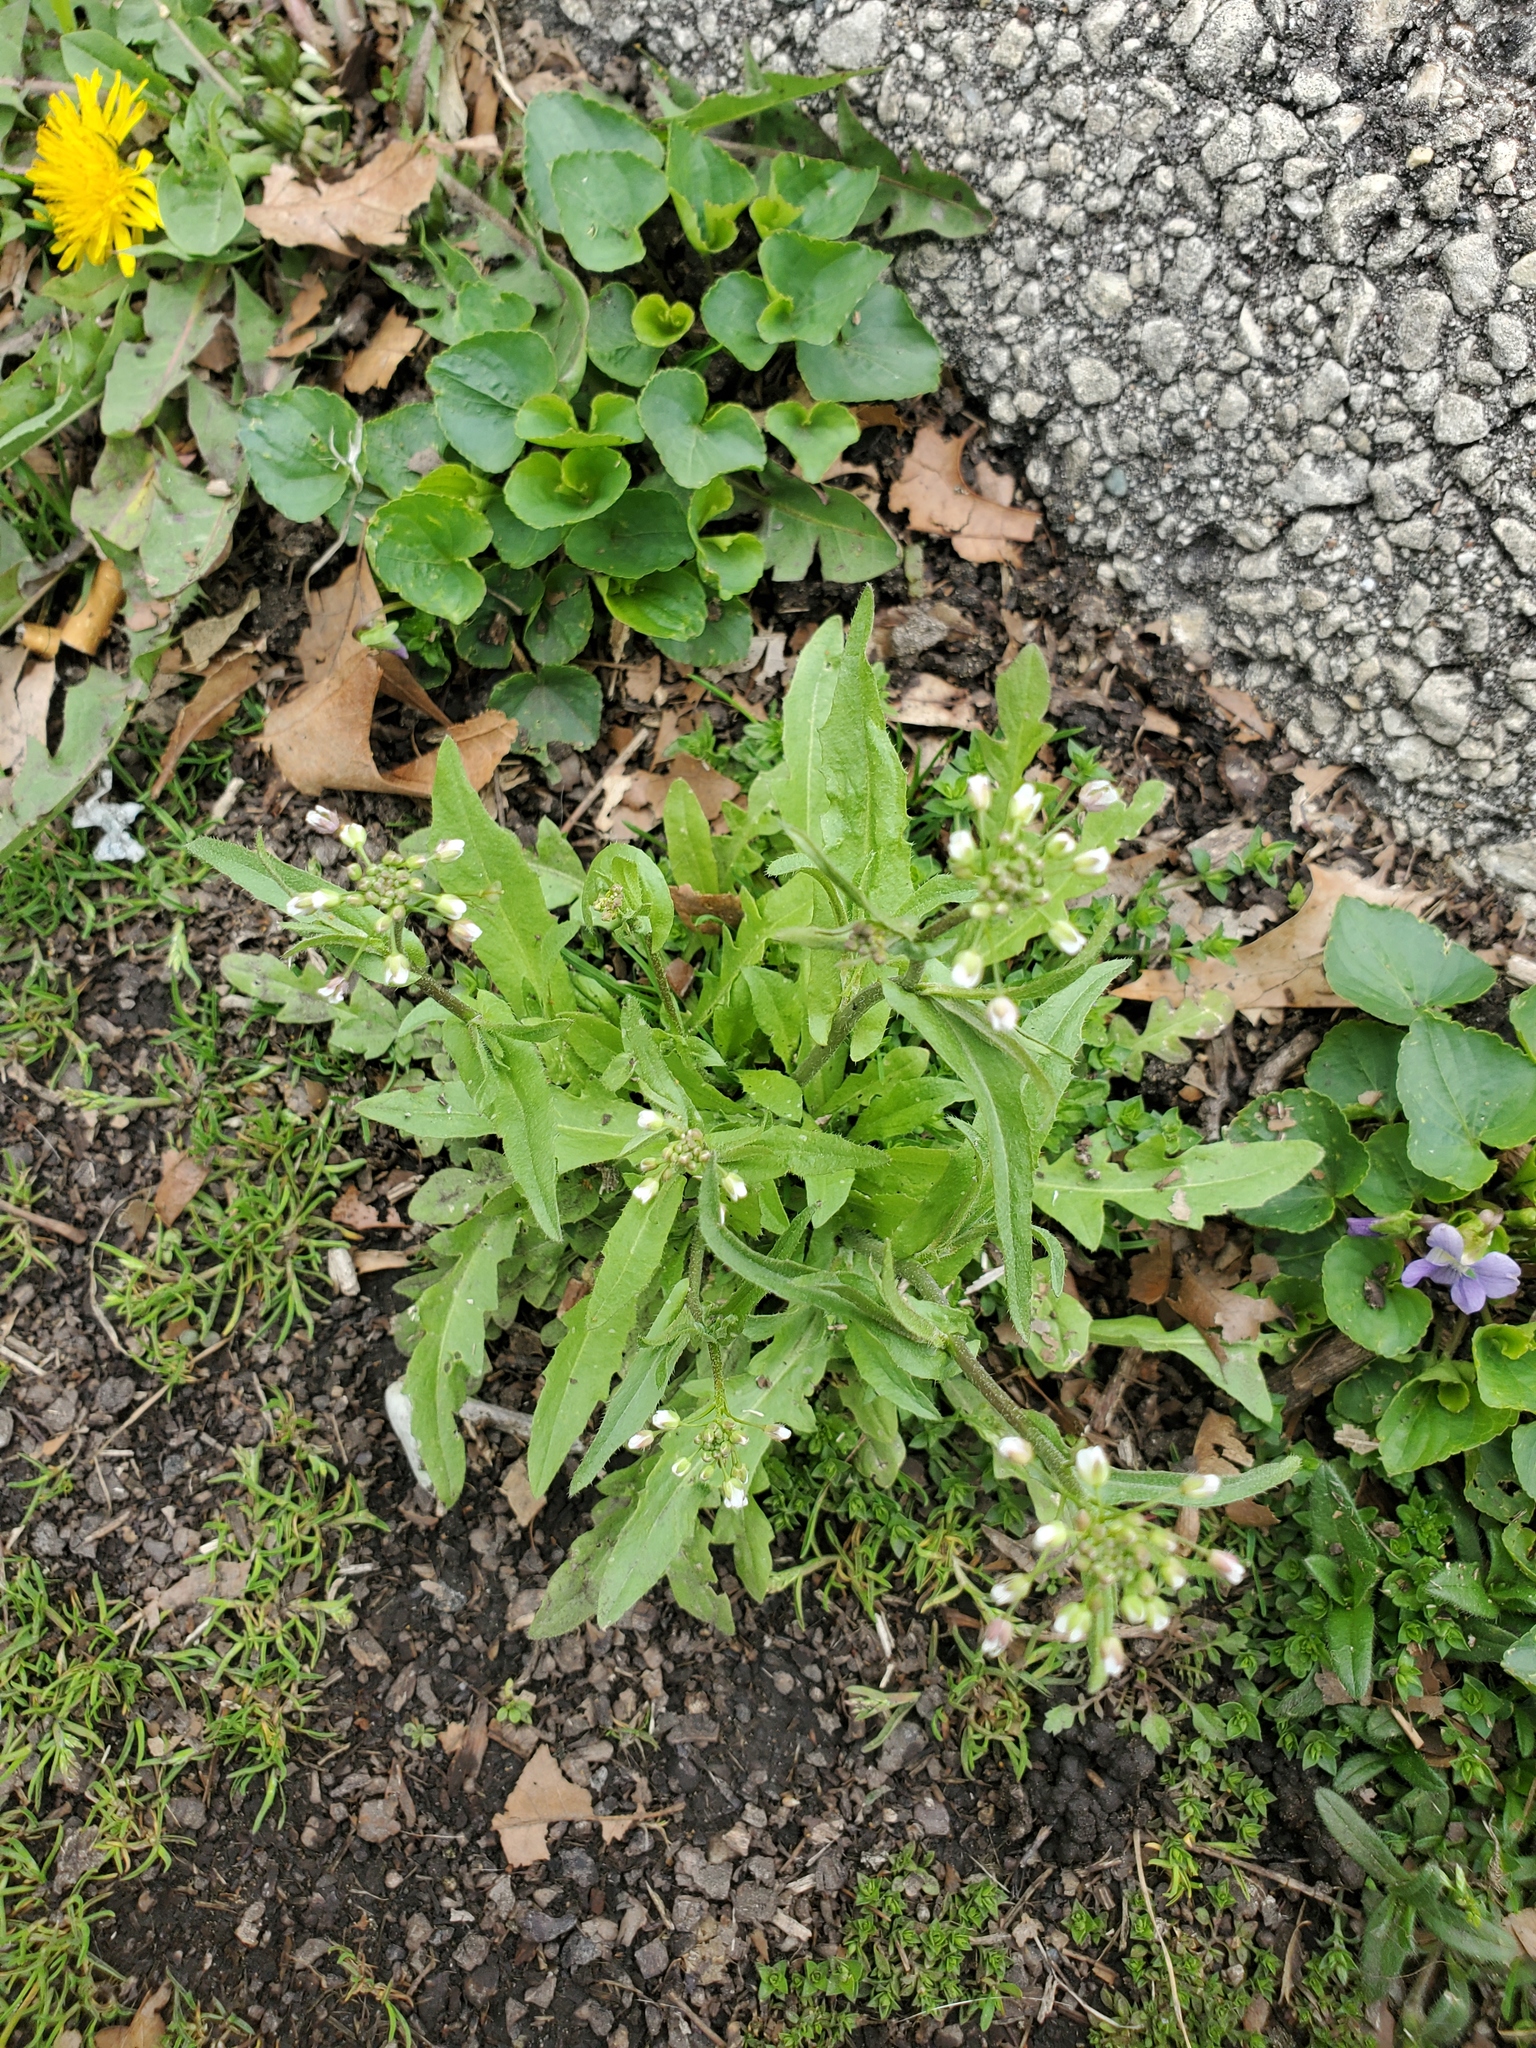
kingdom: Plantae
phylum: Tracheophyta
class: Magnoliopsida
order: Caryophyllales
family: Montiaceae
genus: Claytonia
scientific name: Claytonia virginica
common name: Virginia springbeauty
